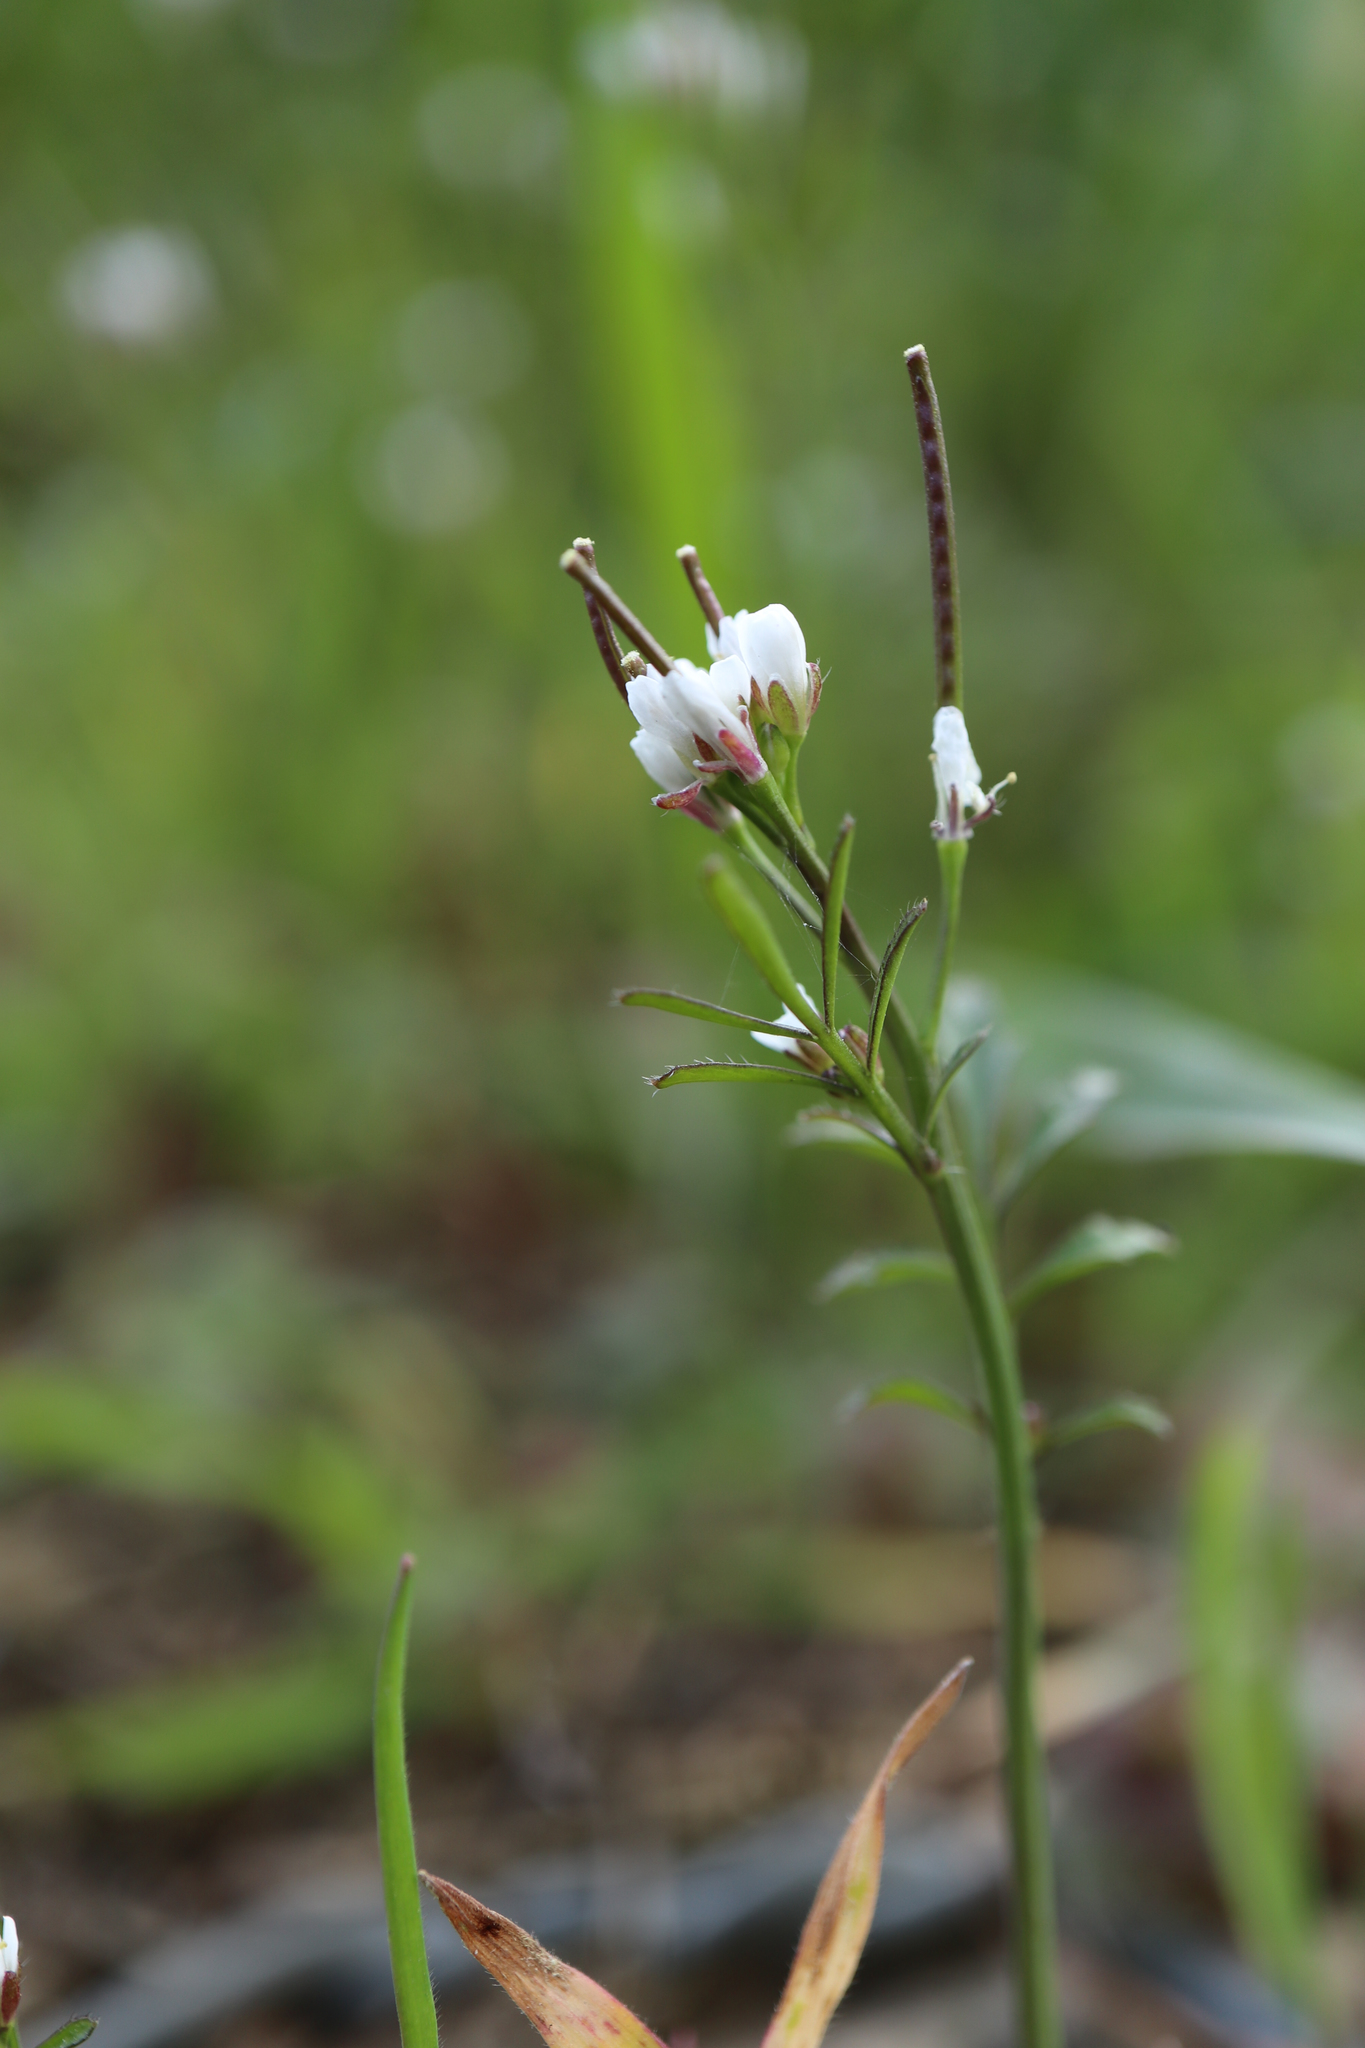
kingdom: Plantae
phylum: Tracheophyta
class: Magnoliopsida
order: Brassicales
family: Brassicaceae
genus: Cardamine
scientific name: Cardamine hirsuta
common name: Hairy bittercress
